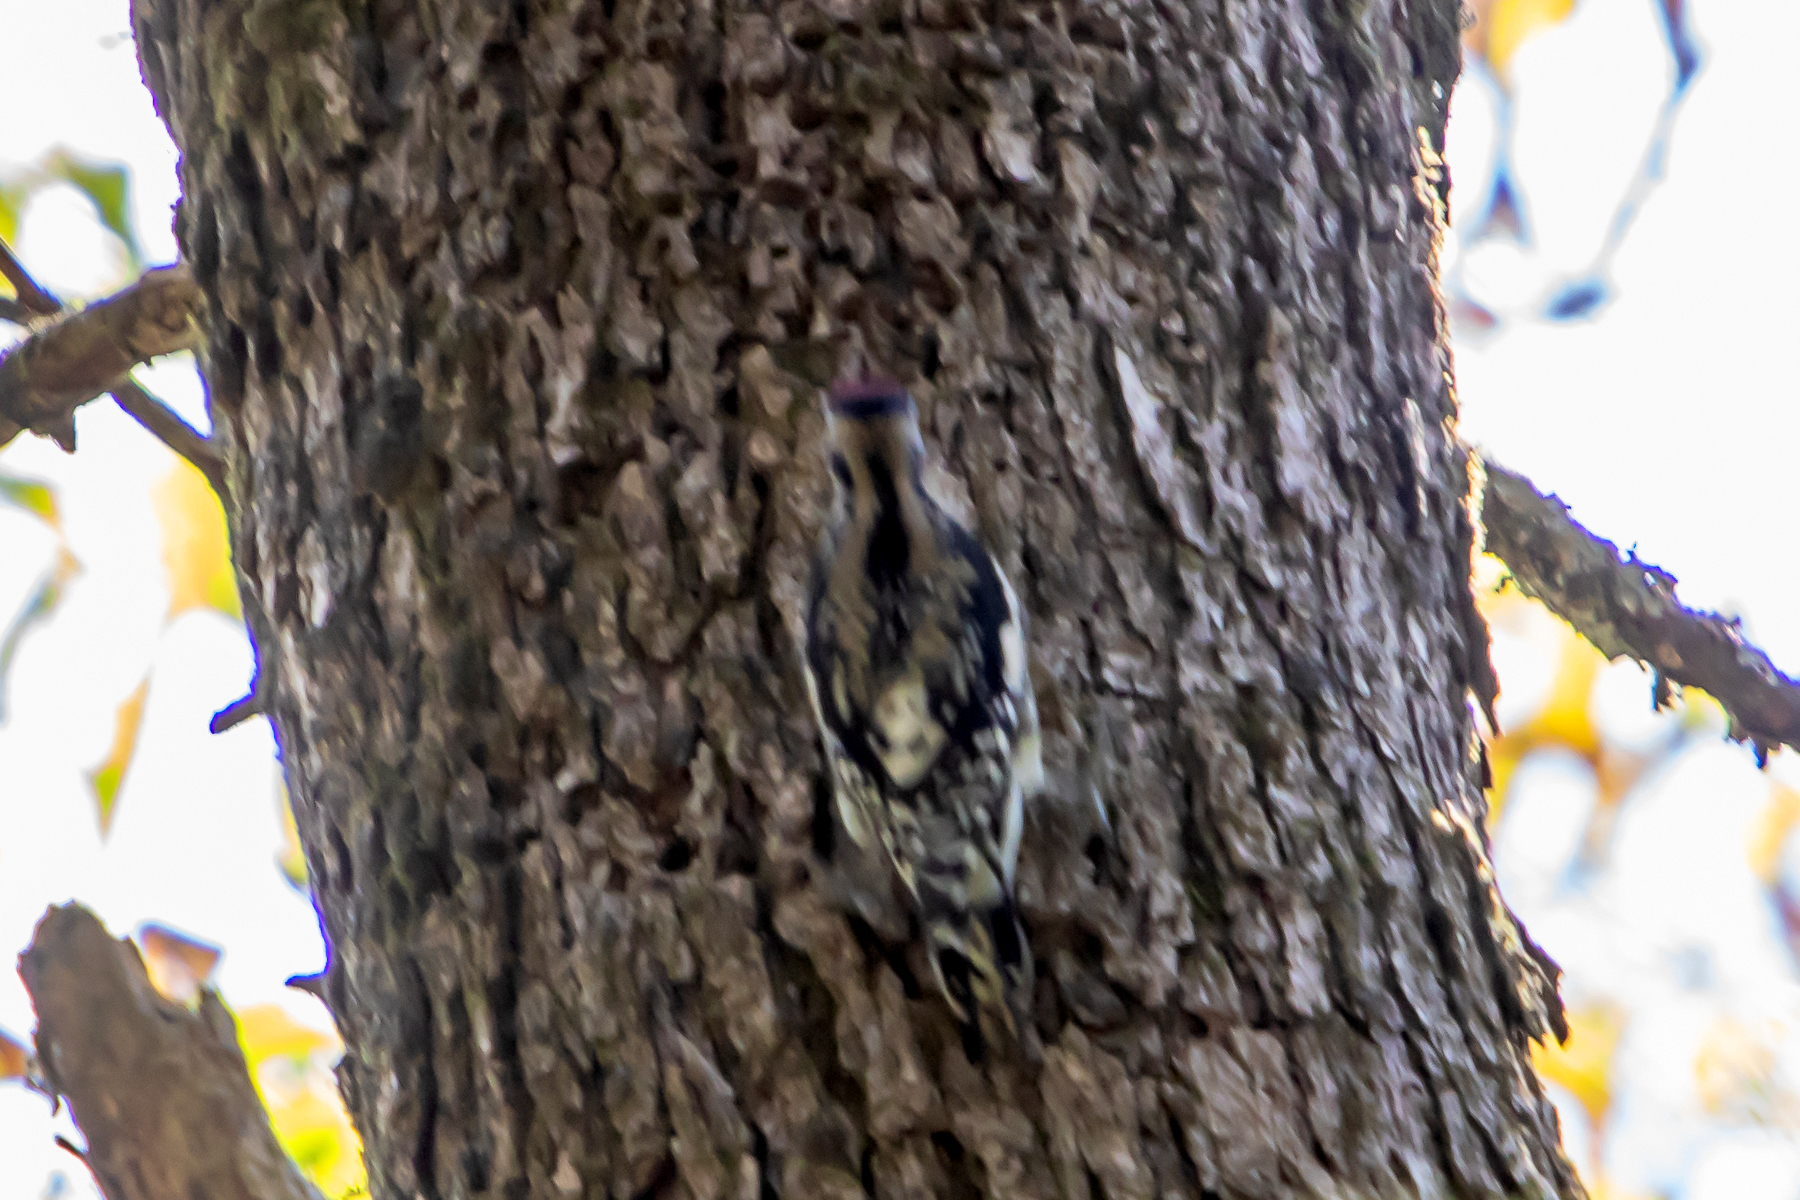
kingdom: Animalia
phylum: Chordata
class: Aves
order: Piciformes
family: Picidae
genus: Sphyrapicus
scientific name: Sphyrapicus varius
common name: Yellow-bellied sapsucker
